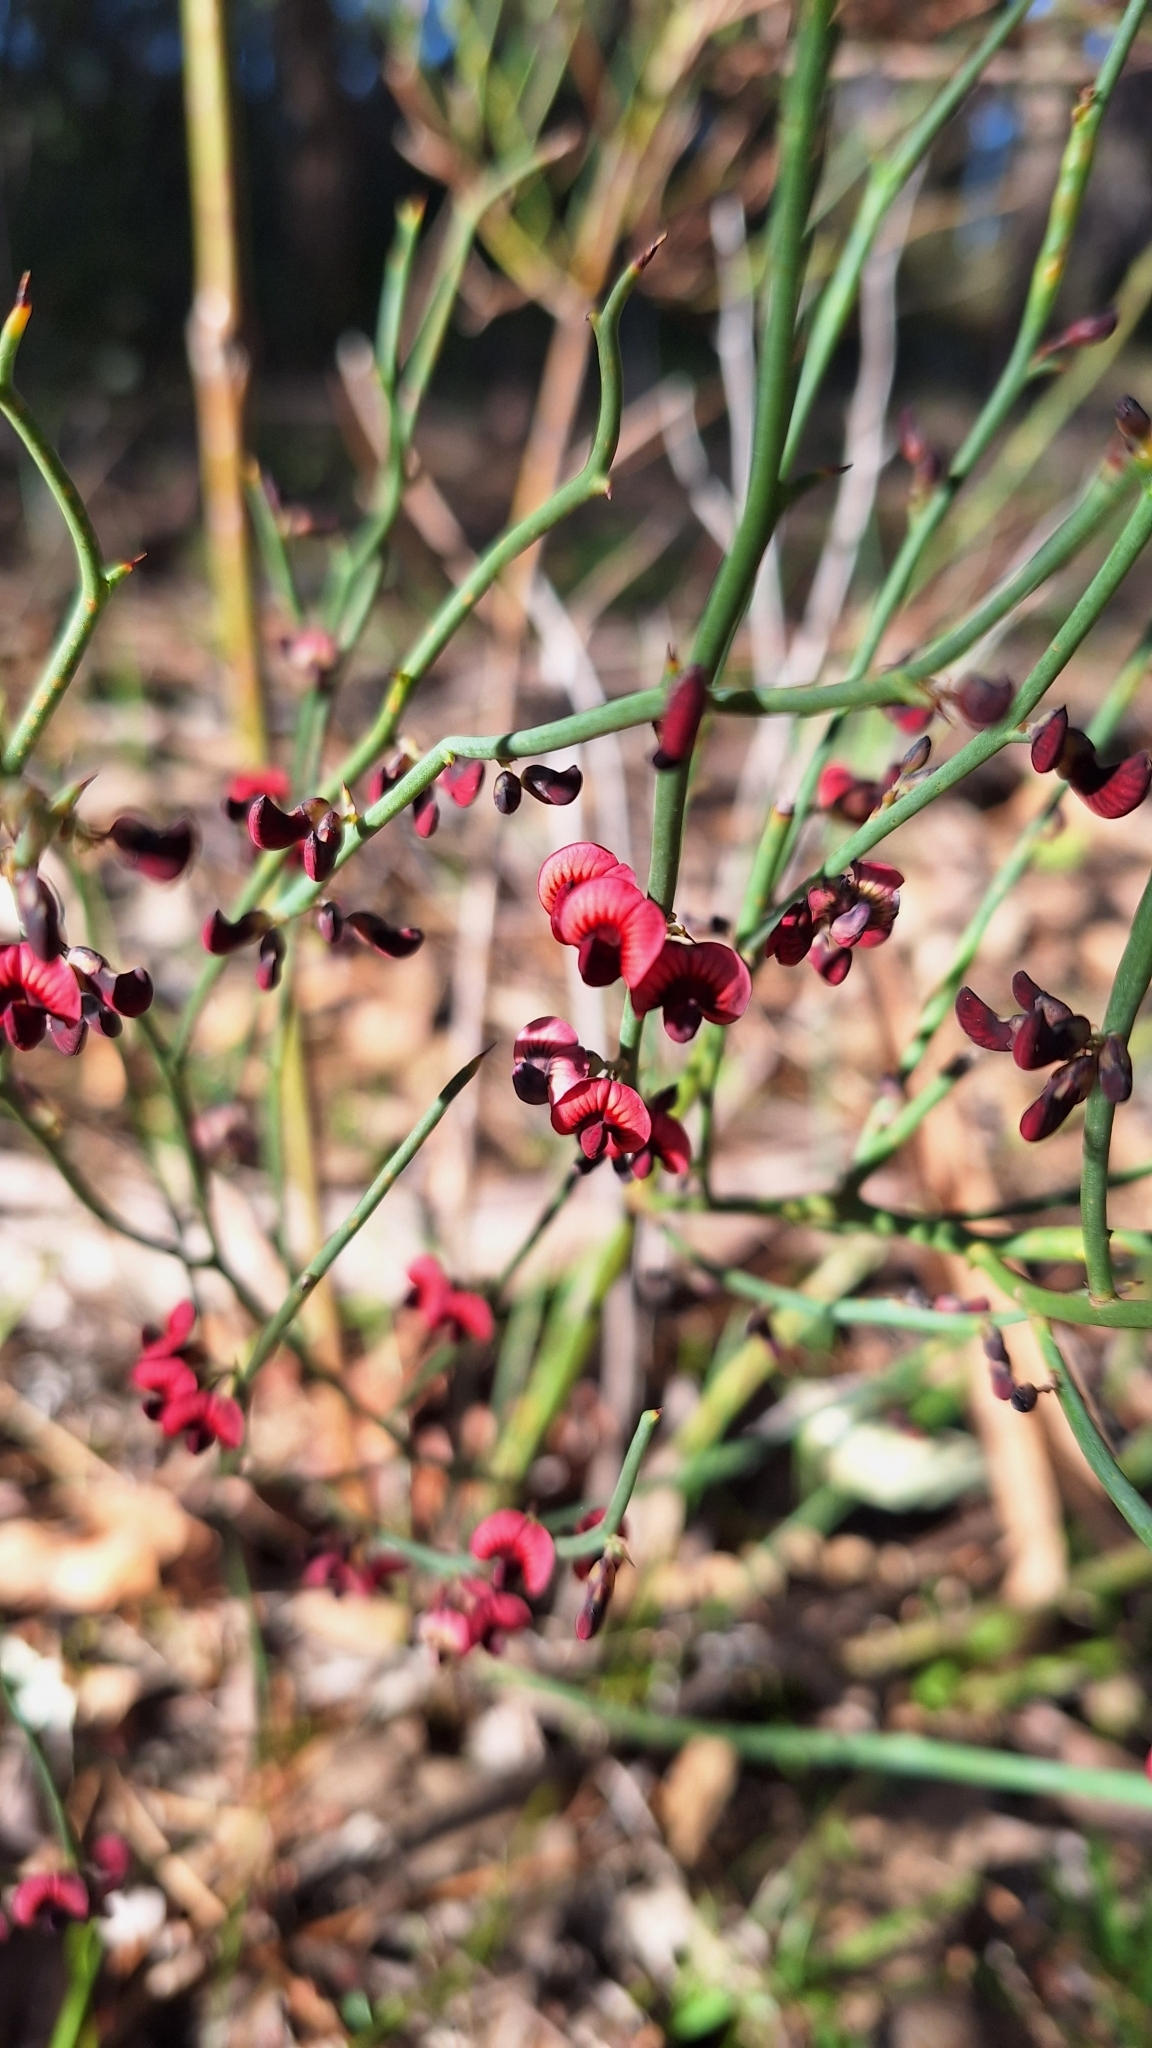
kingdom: Plantae
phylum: Tracheophyta
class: Magnoliopsida
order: Fabales
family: Fabaceae
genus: Daviesia
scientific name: Daviesia brevifolia
